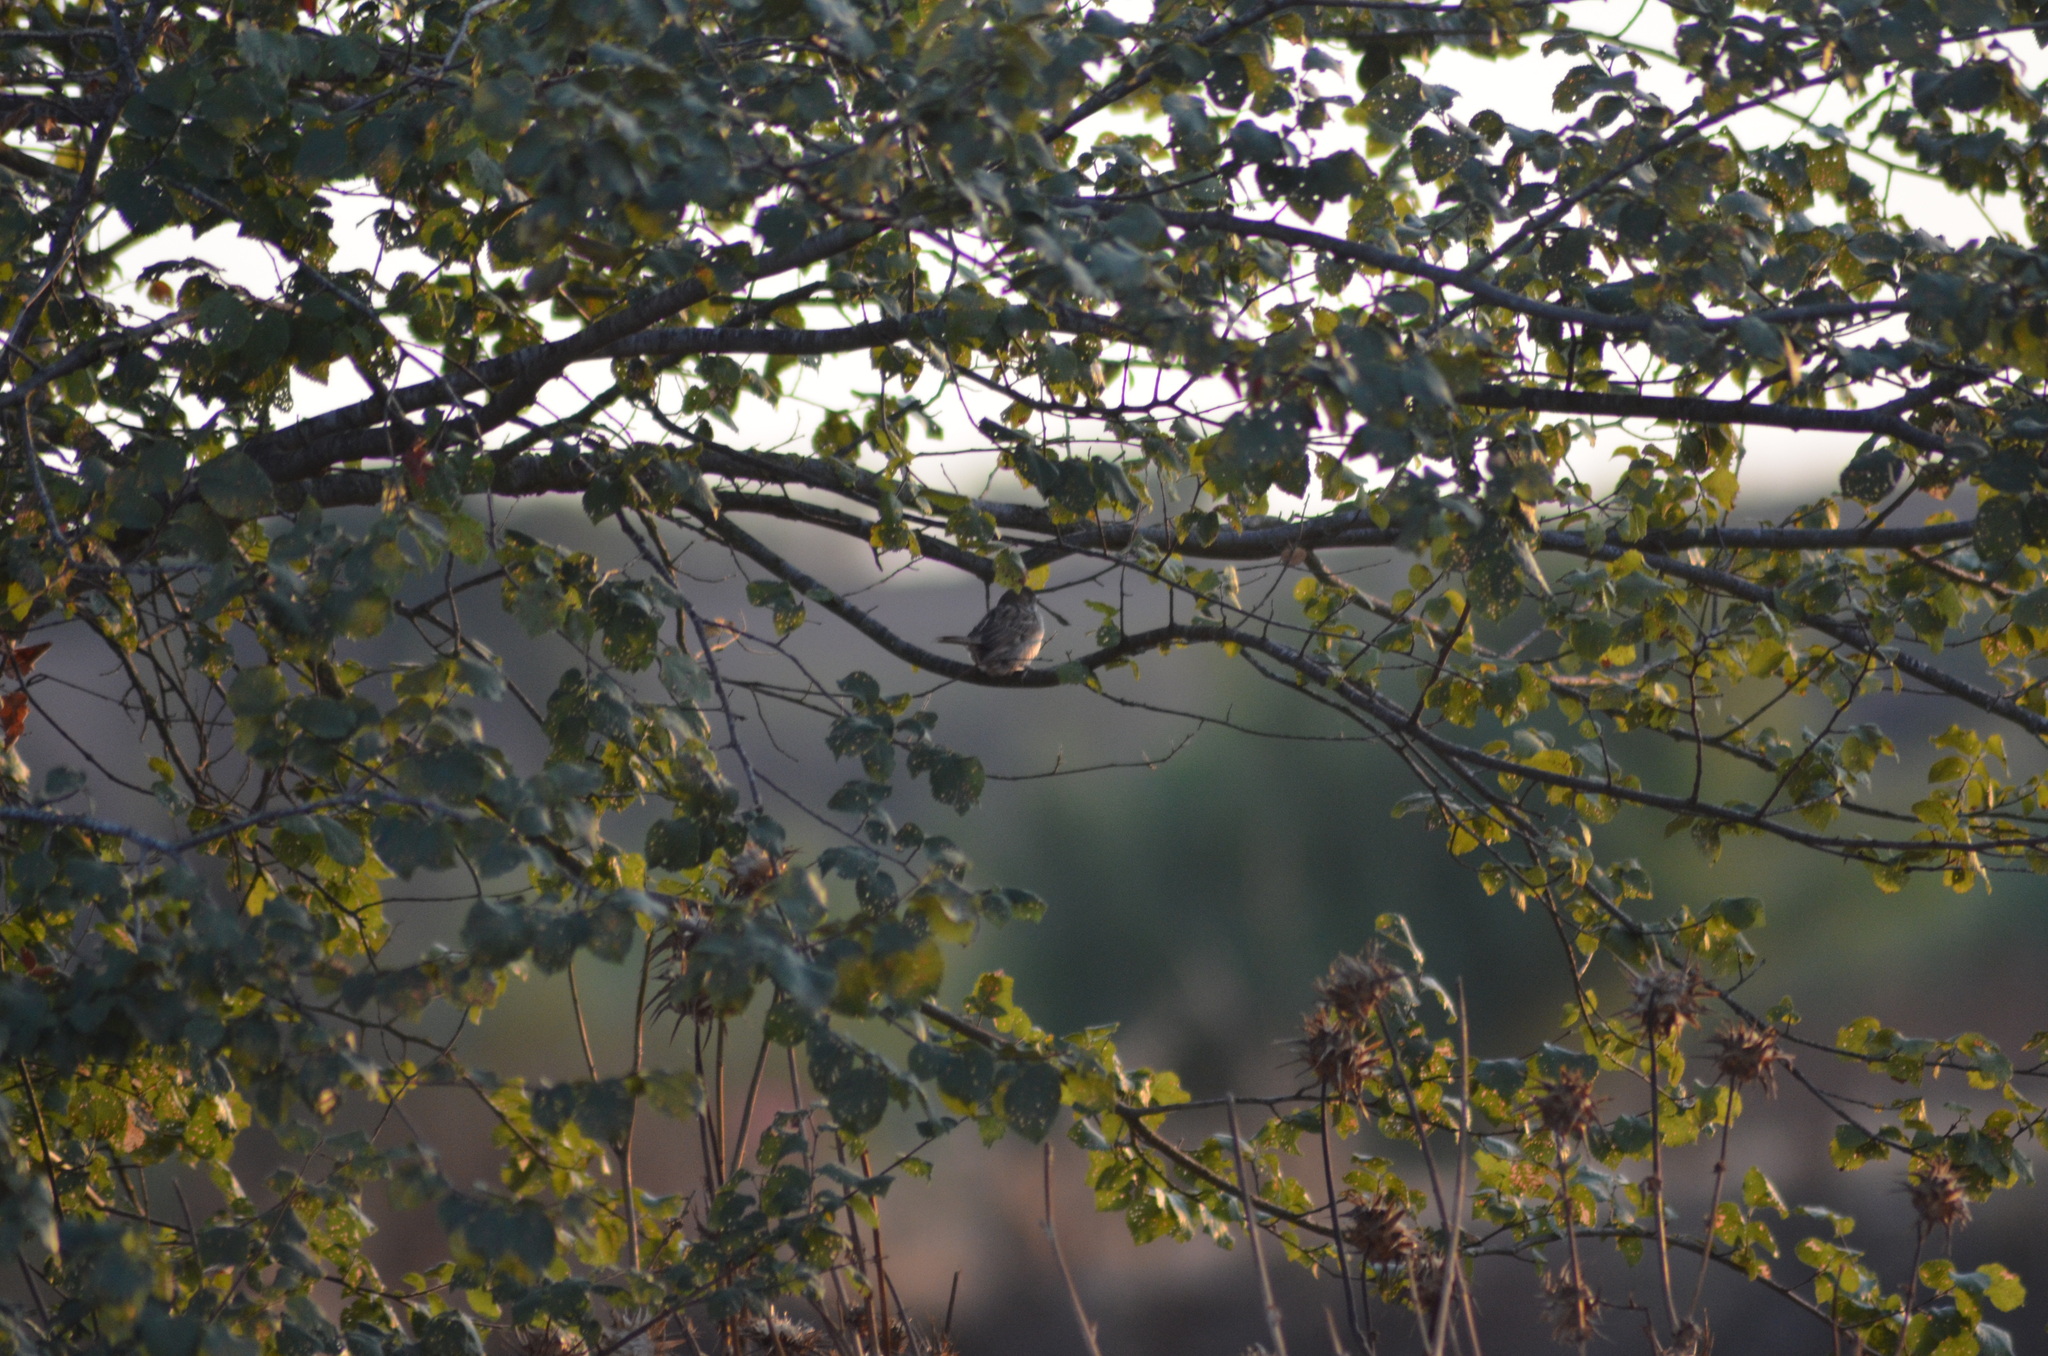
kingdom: Animalia
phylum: Chordata
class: Aves
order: Passeriformes
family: Passeridae
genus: Passer
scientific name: Passer montanus
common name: Eurasian tree sparrow
